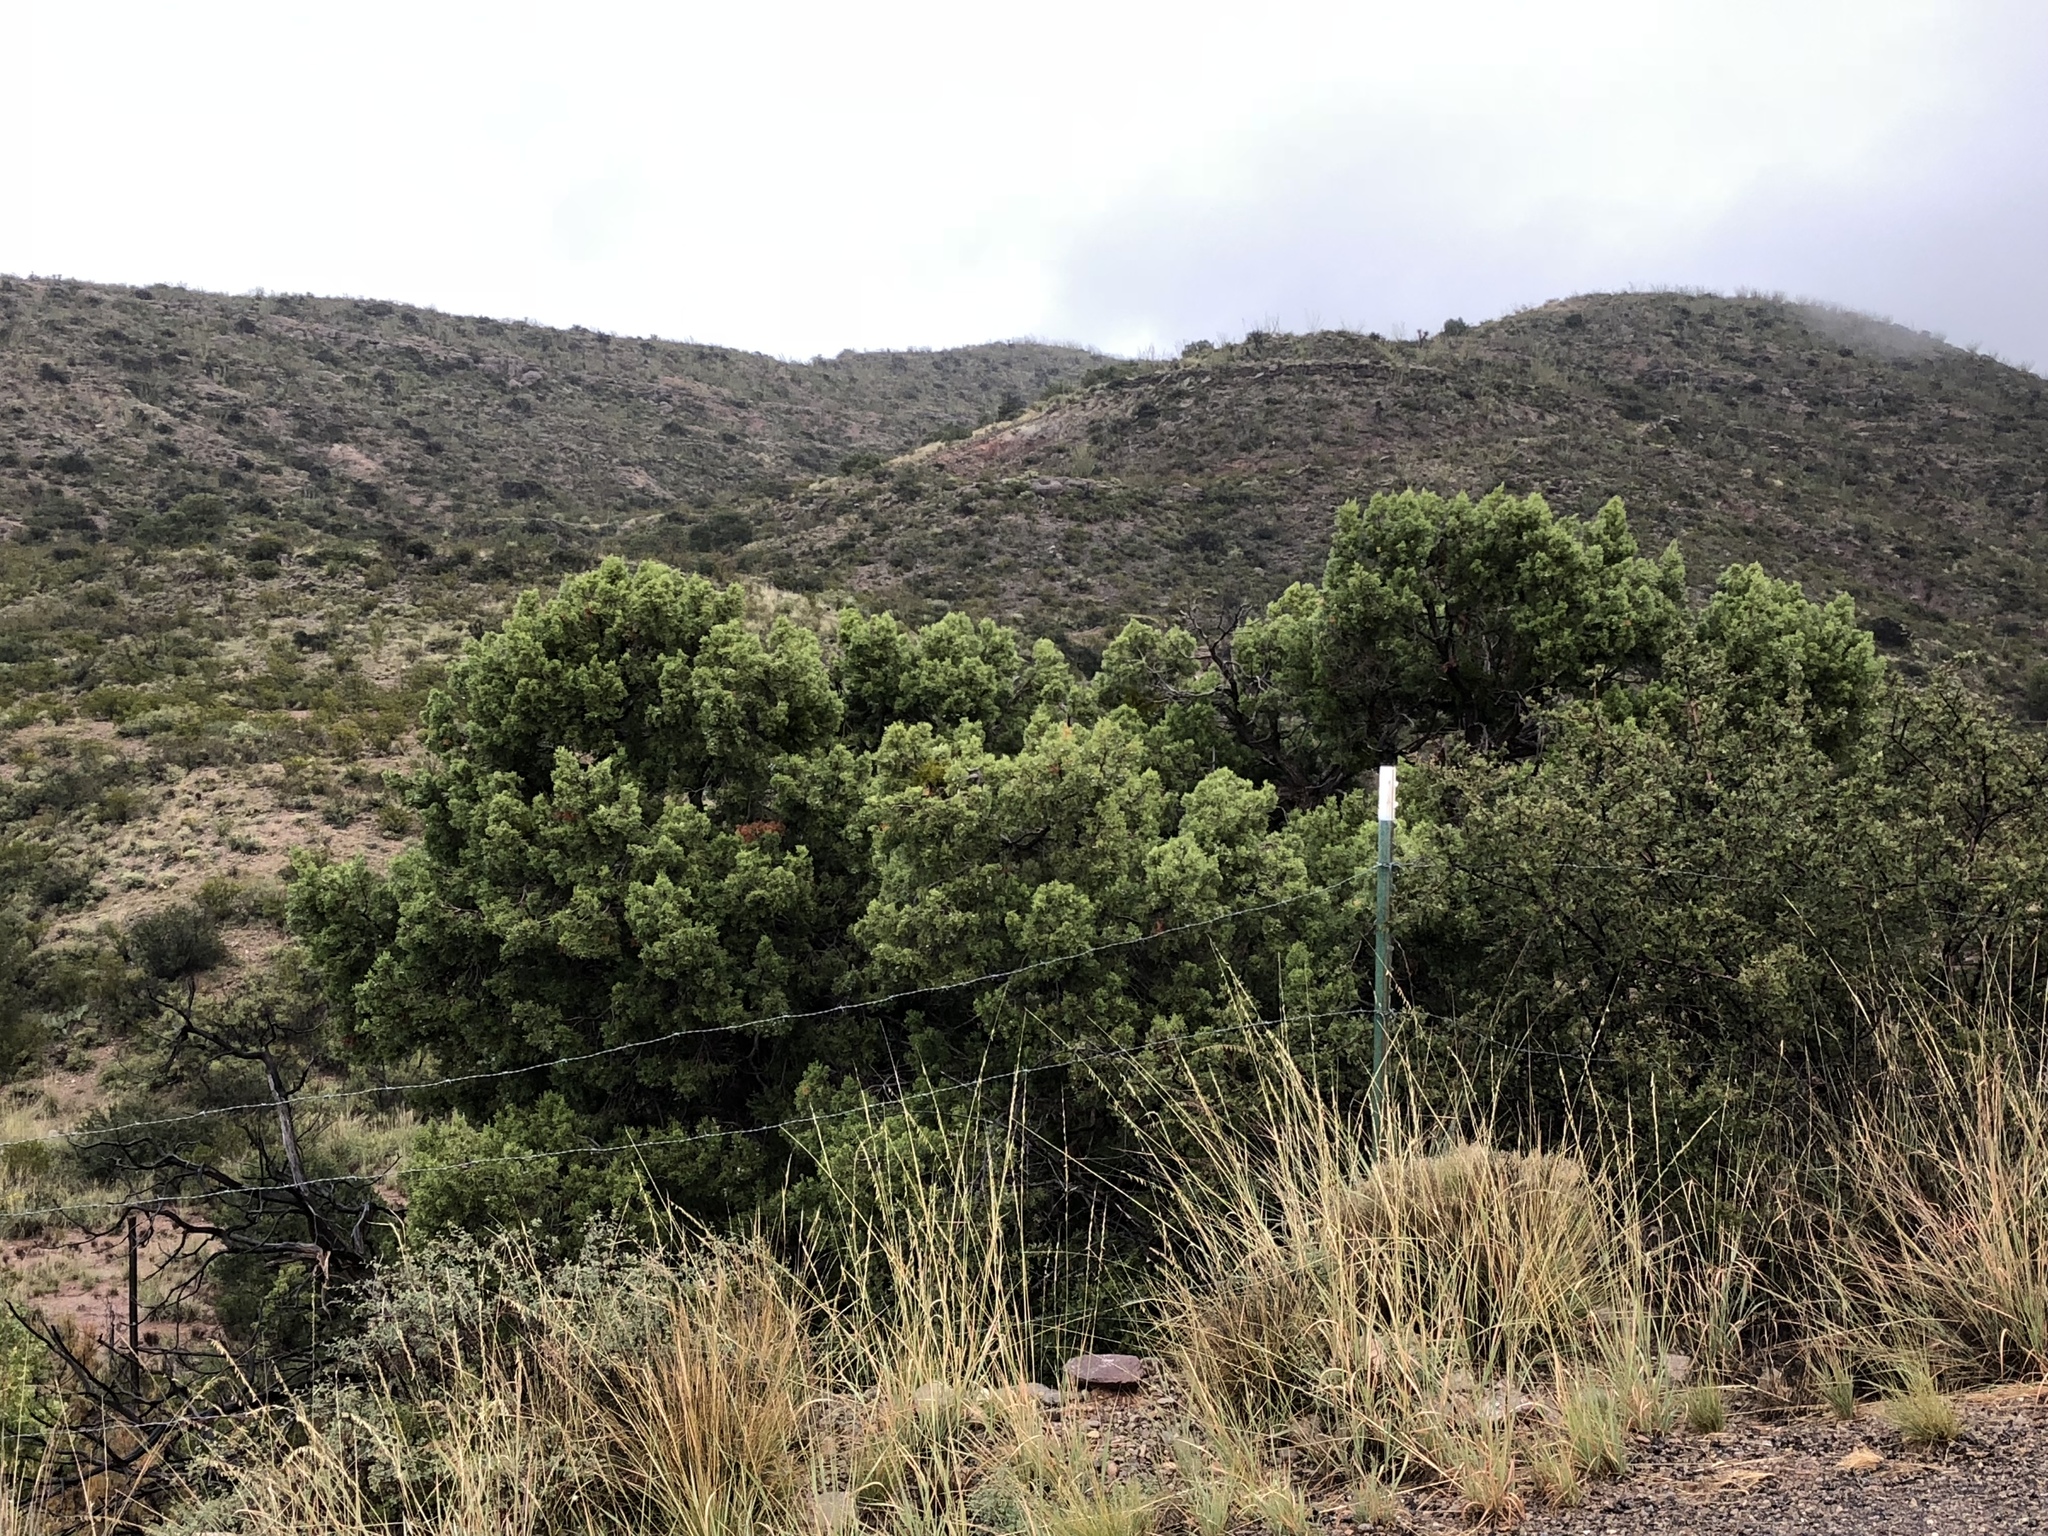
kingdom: Plantae
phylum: Tracheophyta
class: Magnoliopsida
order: Malpighiales
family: Salicaceae
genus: Populus
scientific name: Populus fremontii
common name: Fremont's cottonwood
